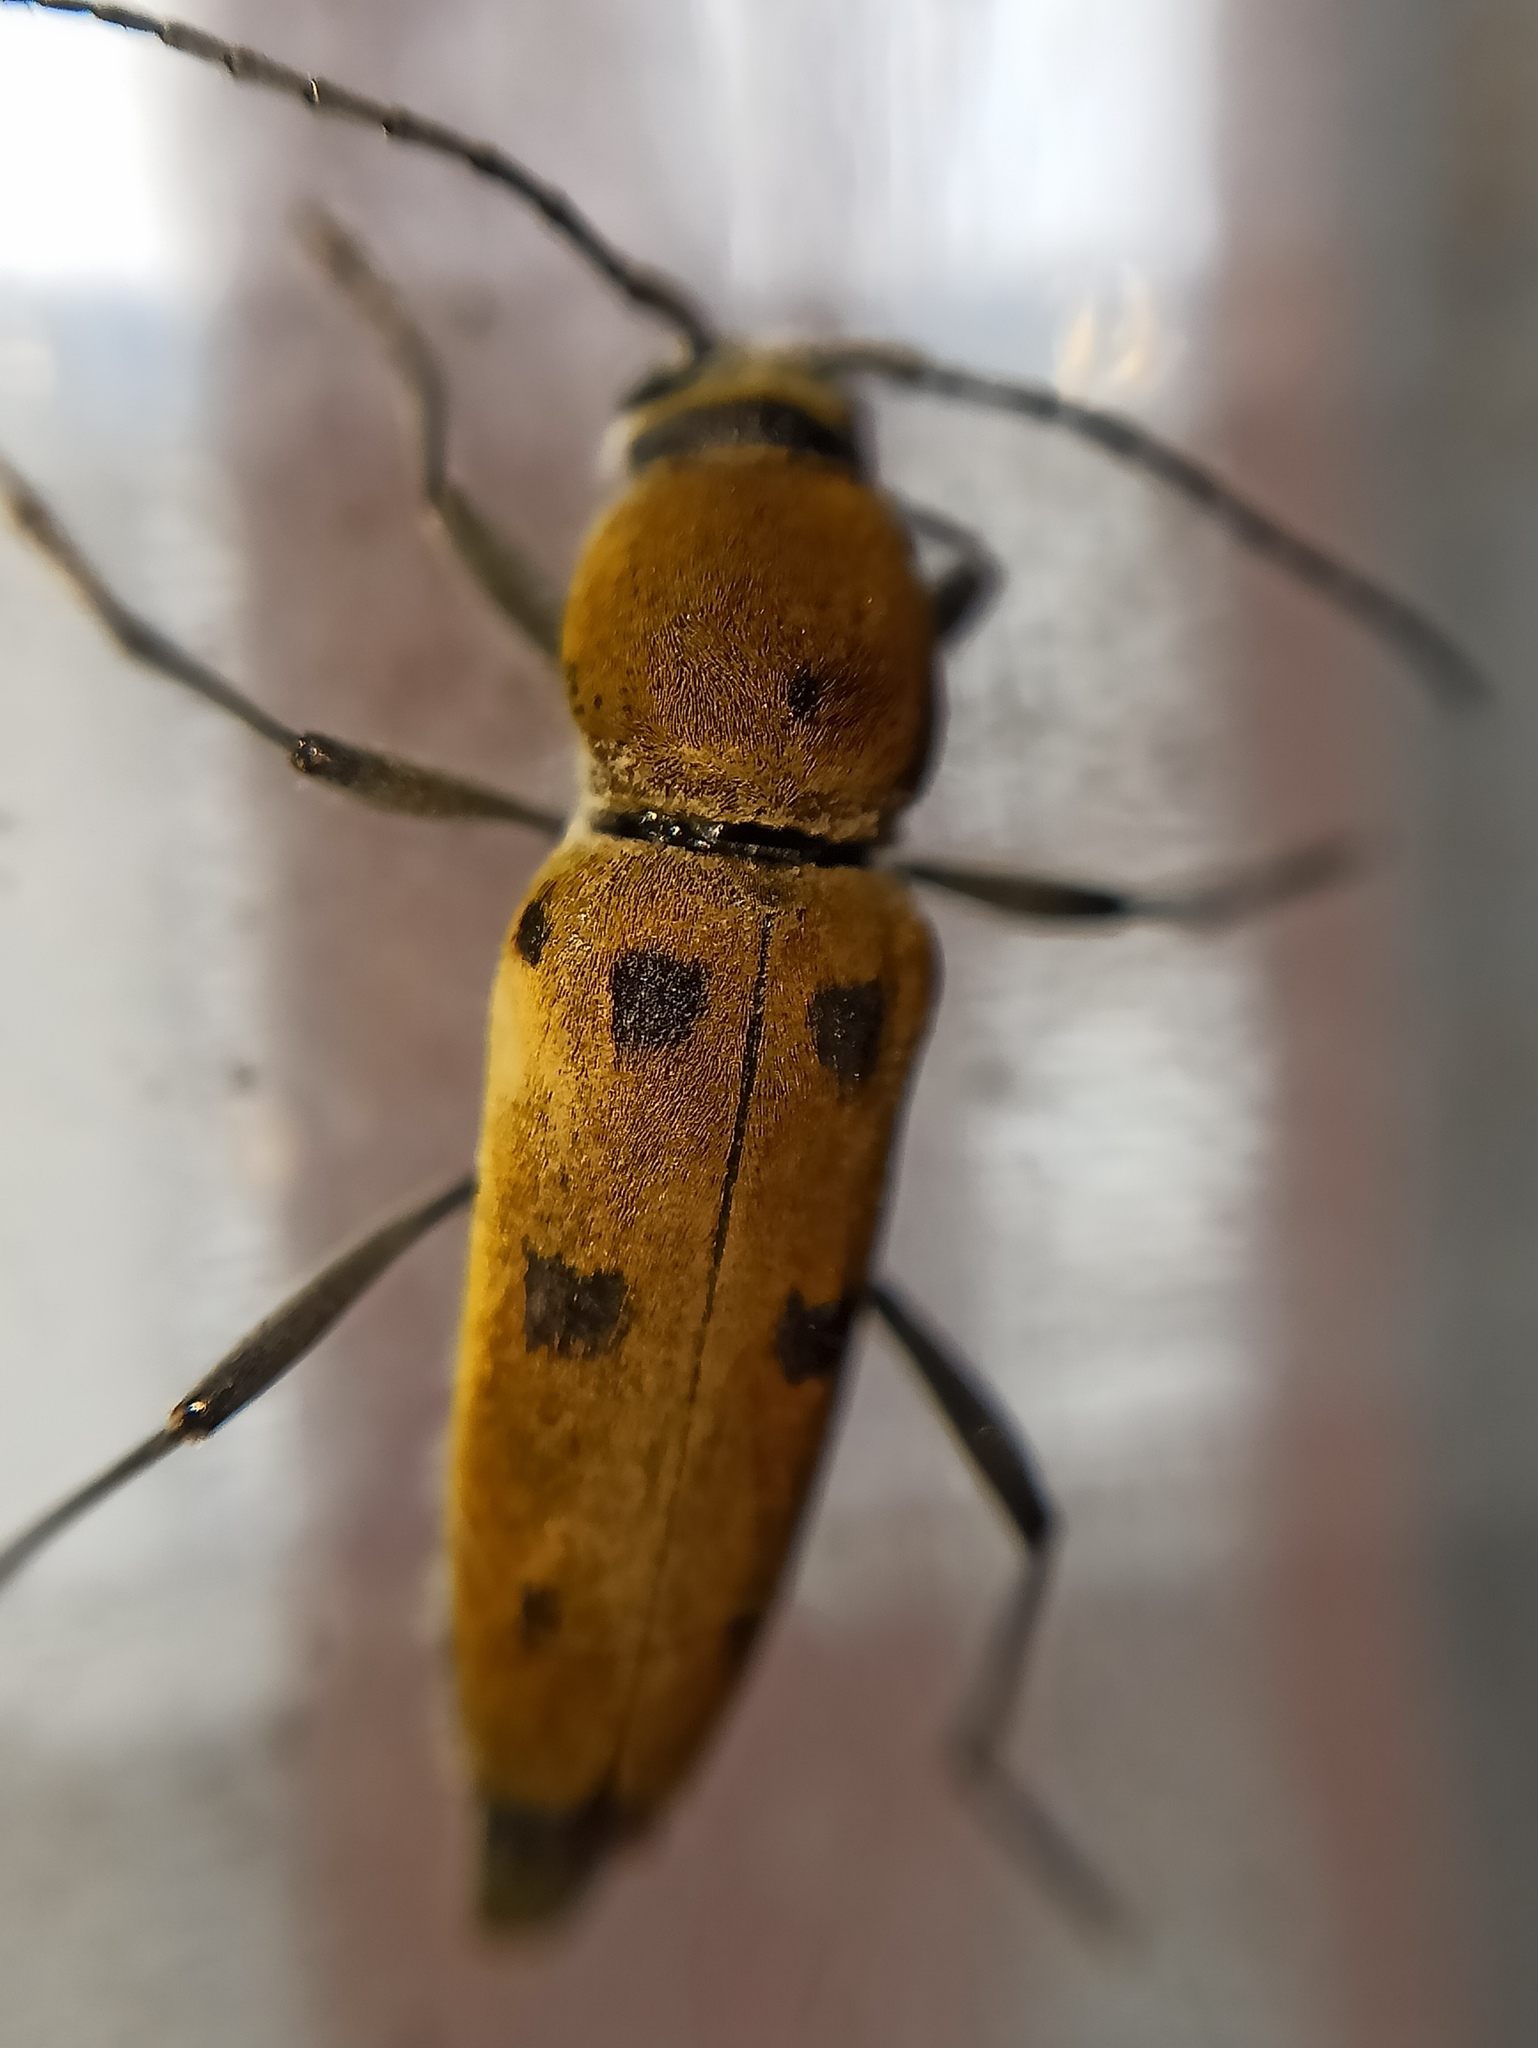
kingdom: Animalia
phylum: Arthropoda
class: Insecta
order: Coleoptera
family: Cerambycidae
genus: Chlorophorus
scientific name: Chlorophorus glabromaculatus
